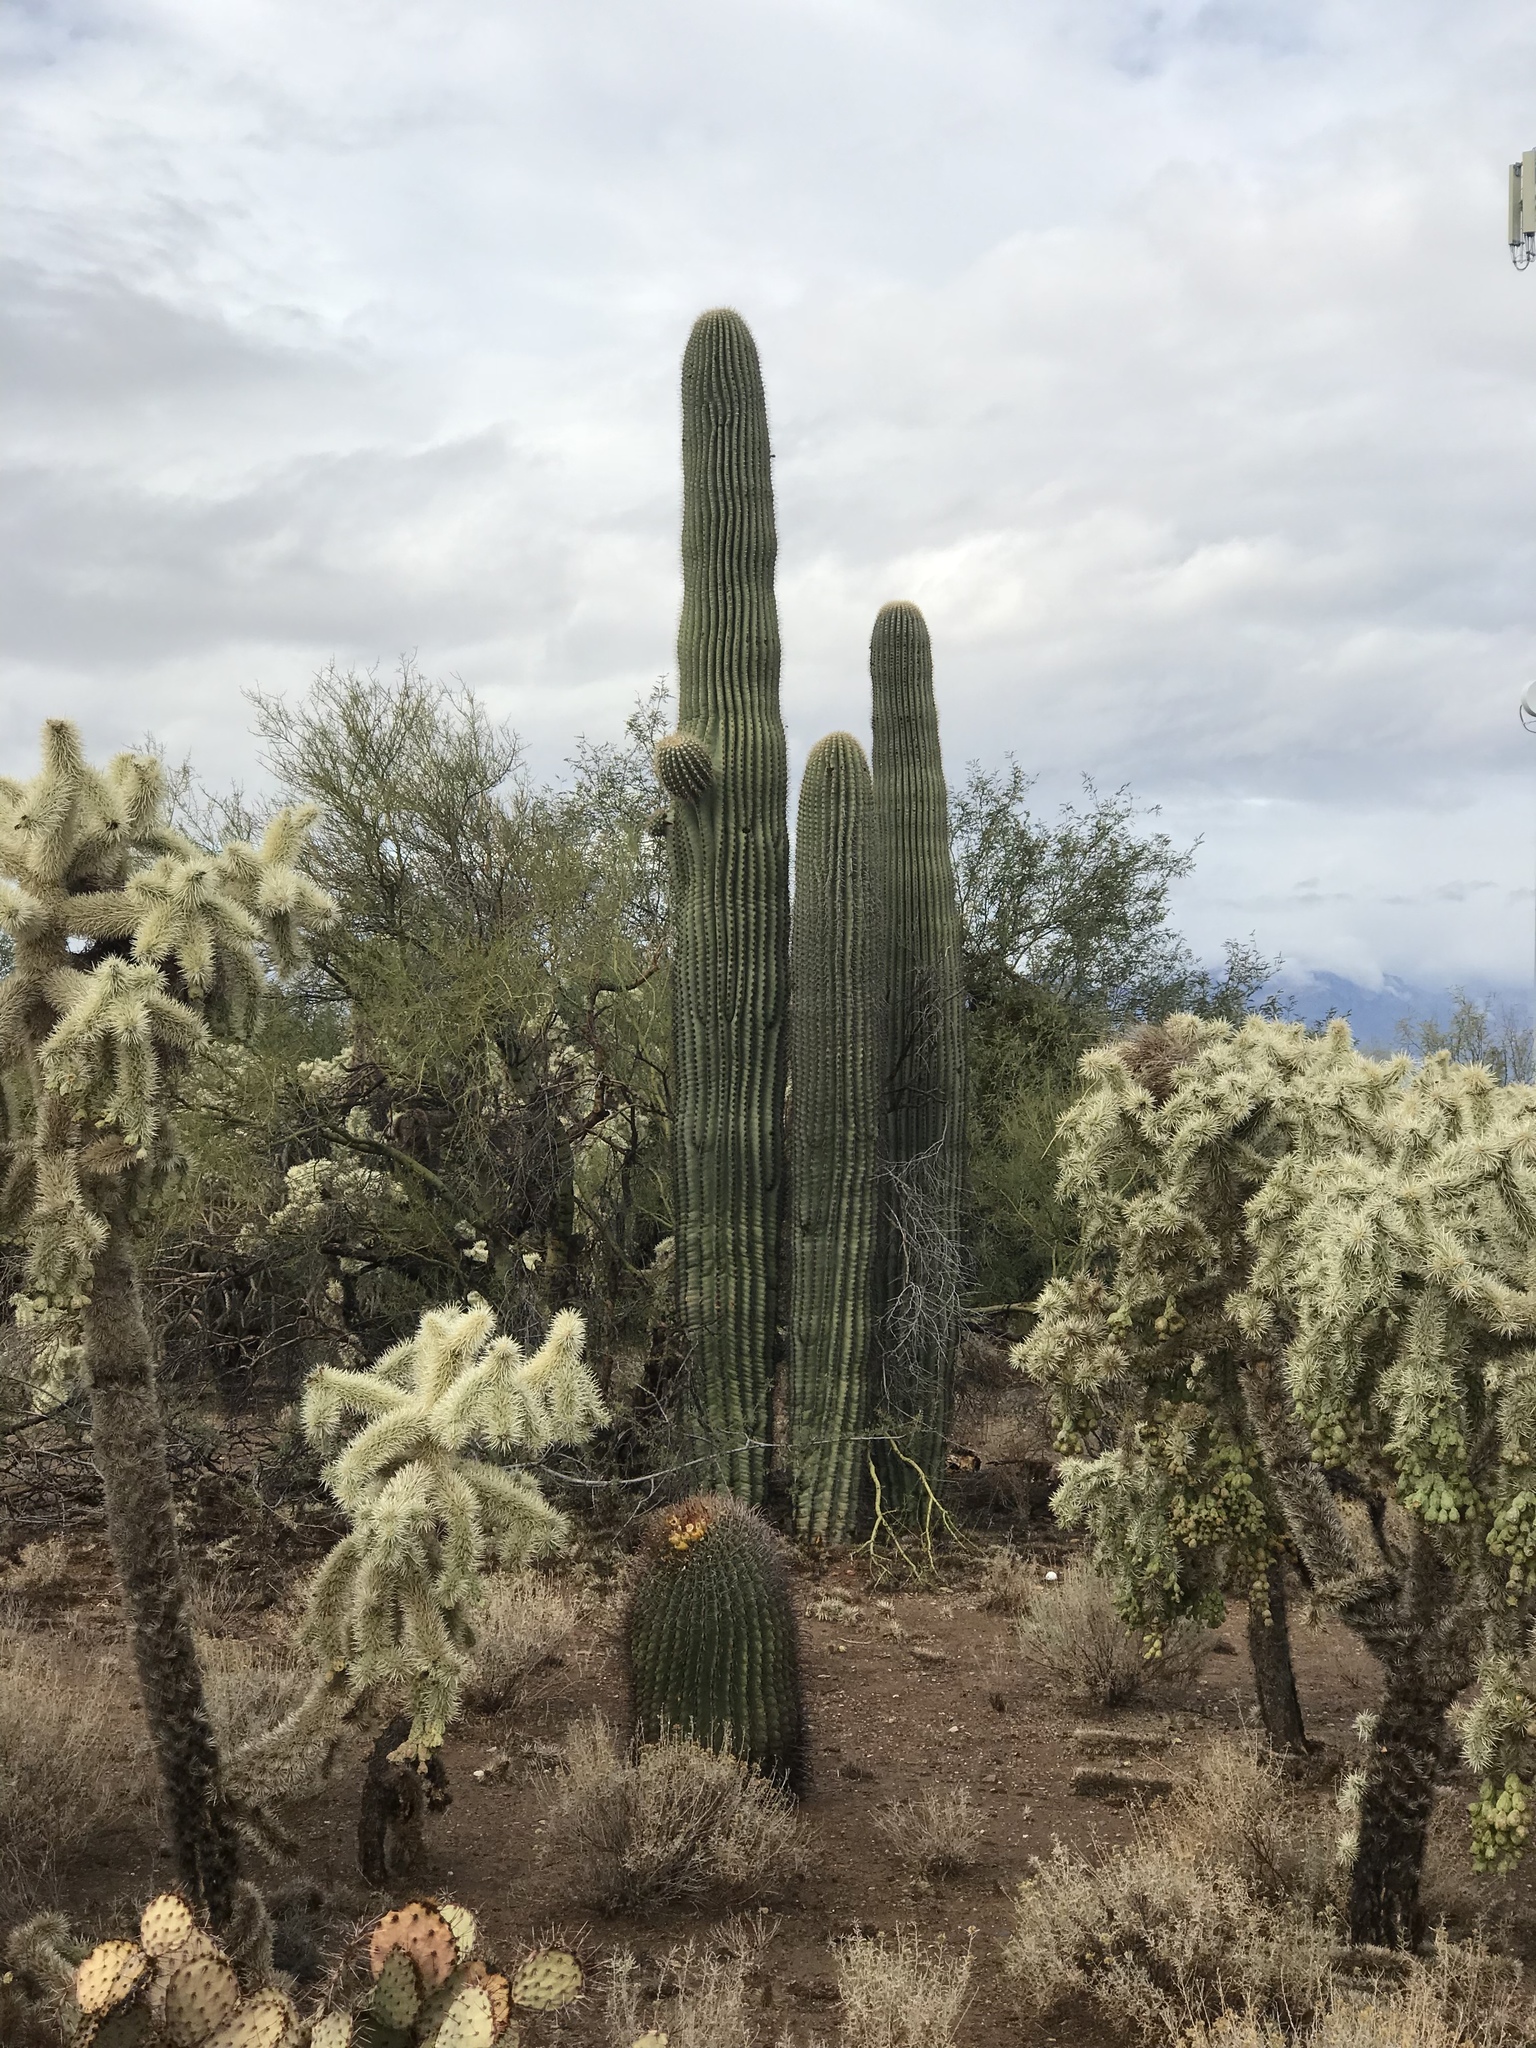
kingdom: Plantae
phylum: Tracheophyta
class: Magnoliopsida
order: Caryophyllales
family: Cactaceae
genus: Carnegiea
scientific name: Carnegiea gigantea
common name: Saguaro
